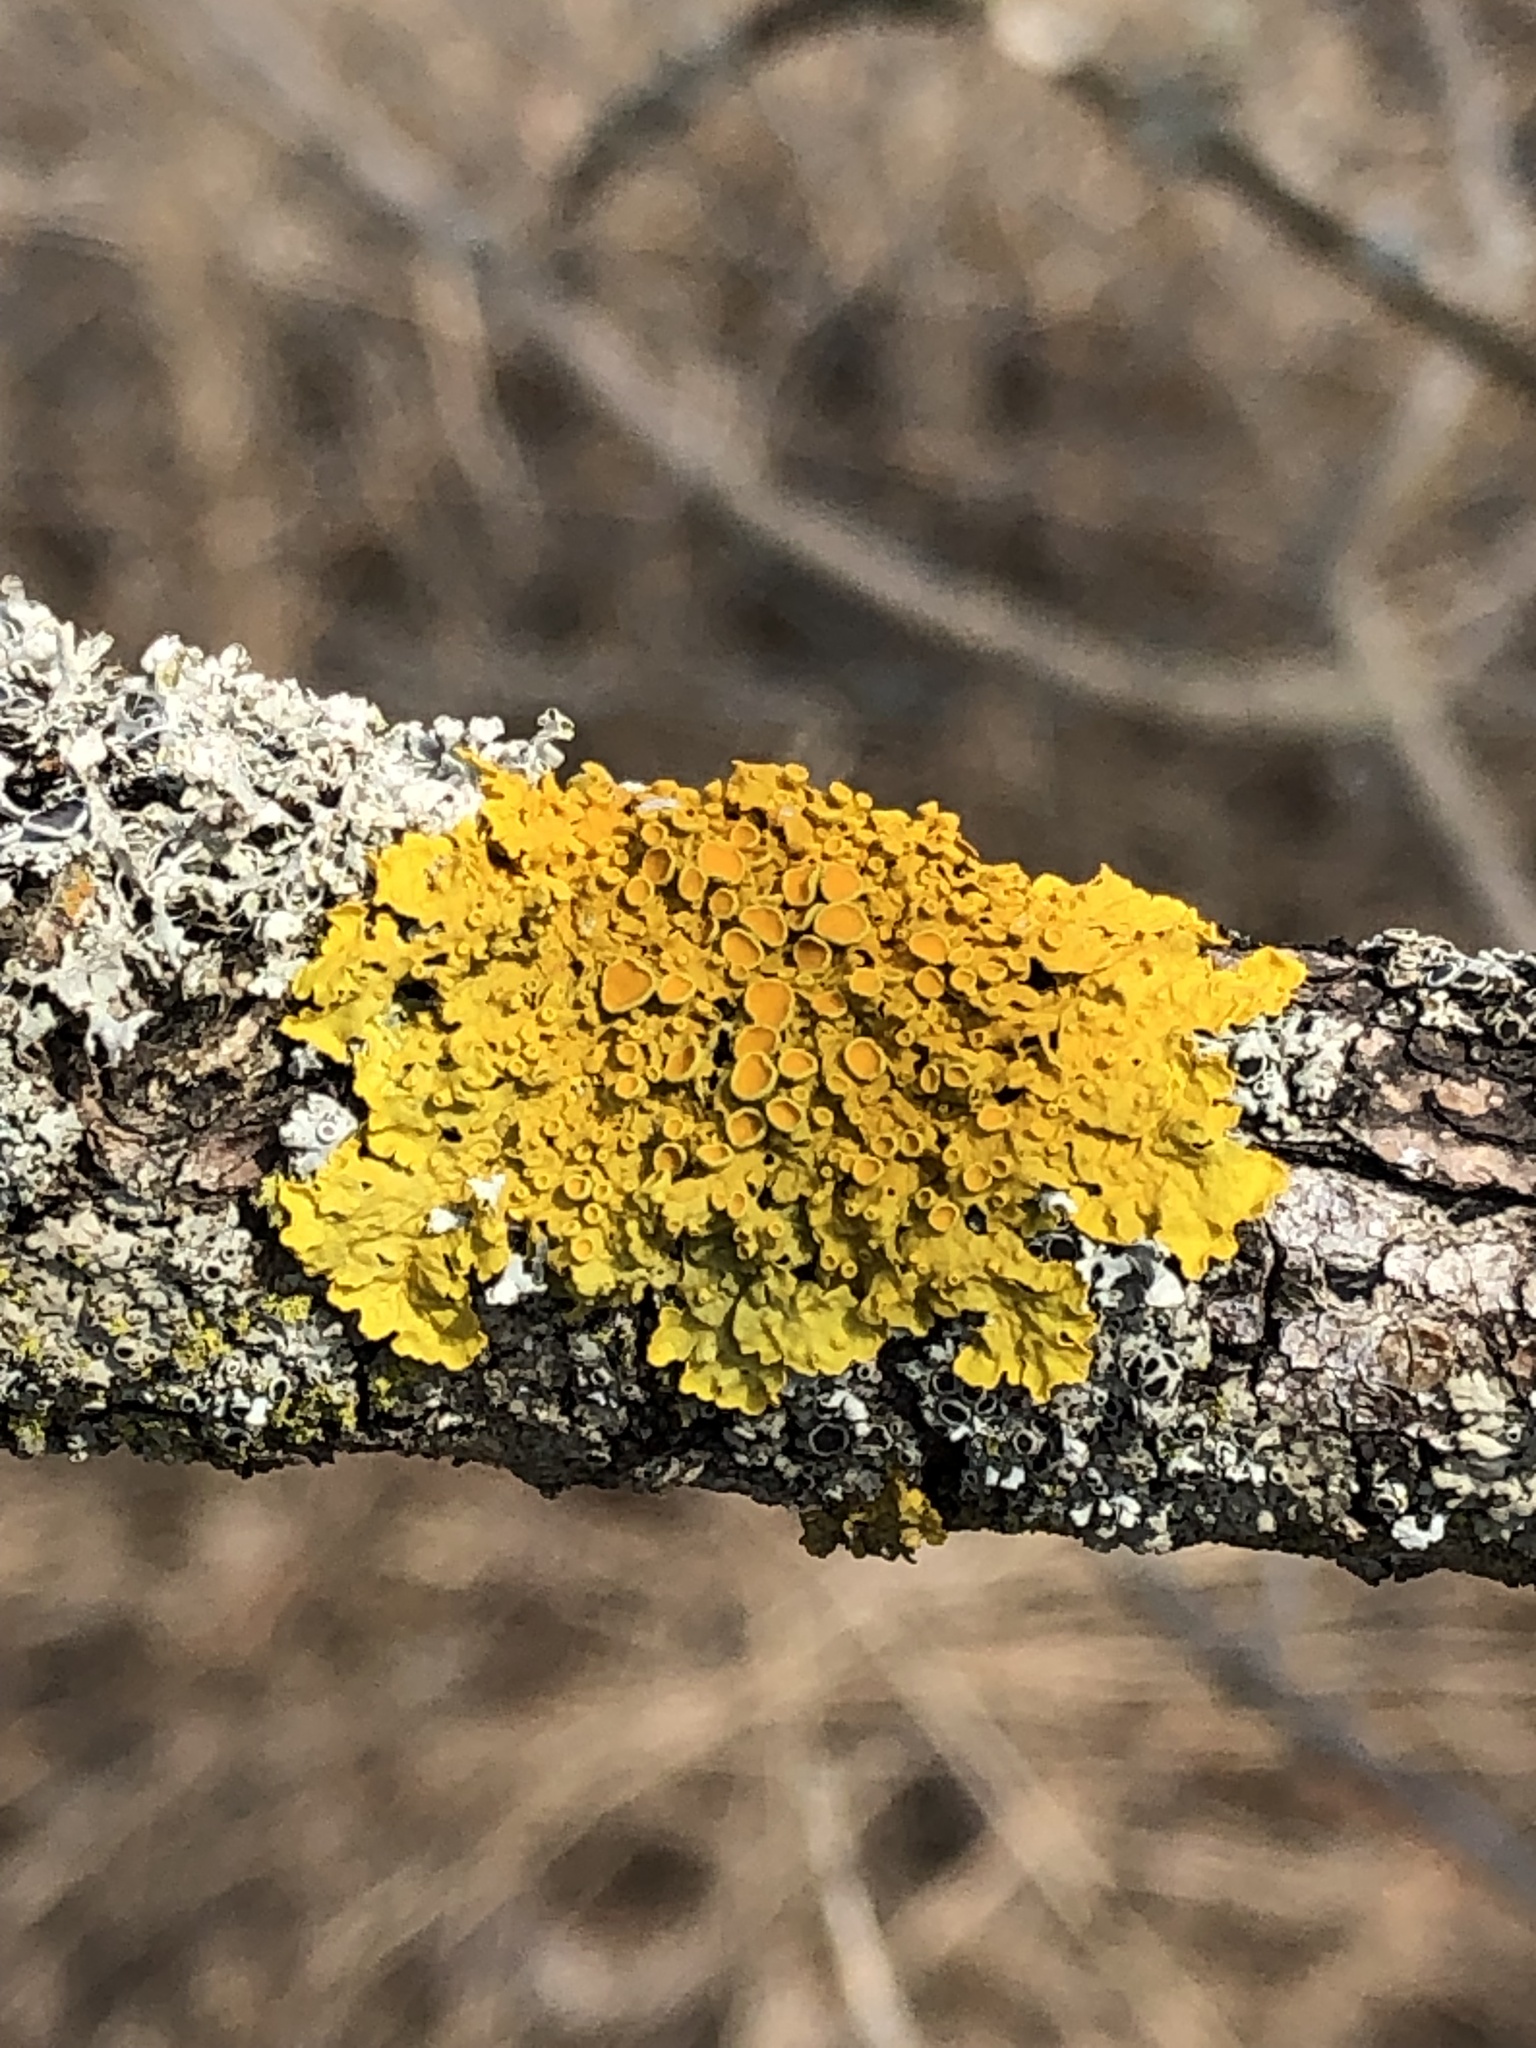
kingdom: Fungi
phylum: Ascomycota
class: Lecanoromycetes
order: Teloschistales
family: Teloschistaceae
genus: Xanthoria
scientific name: Xanthoria parietina
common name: Common orange lichen
